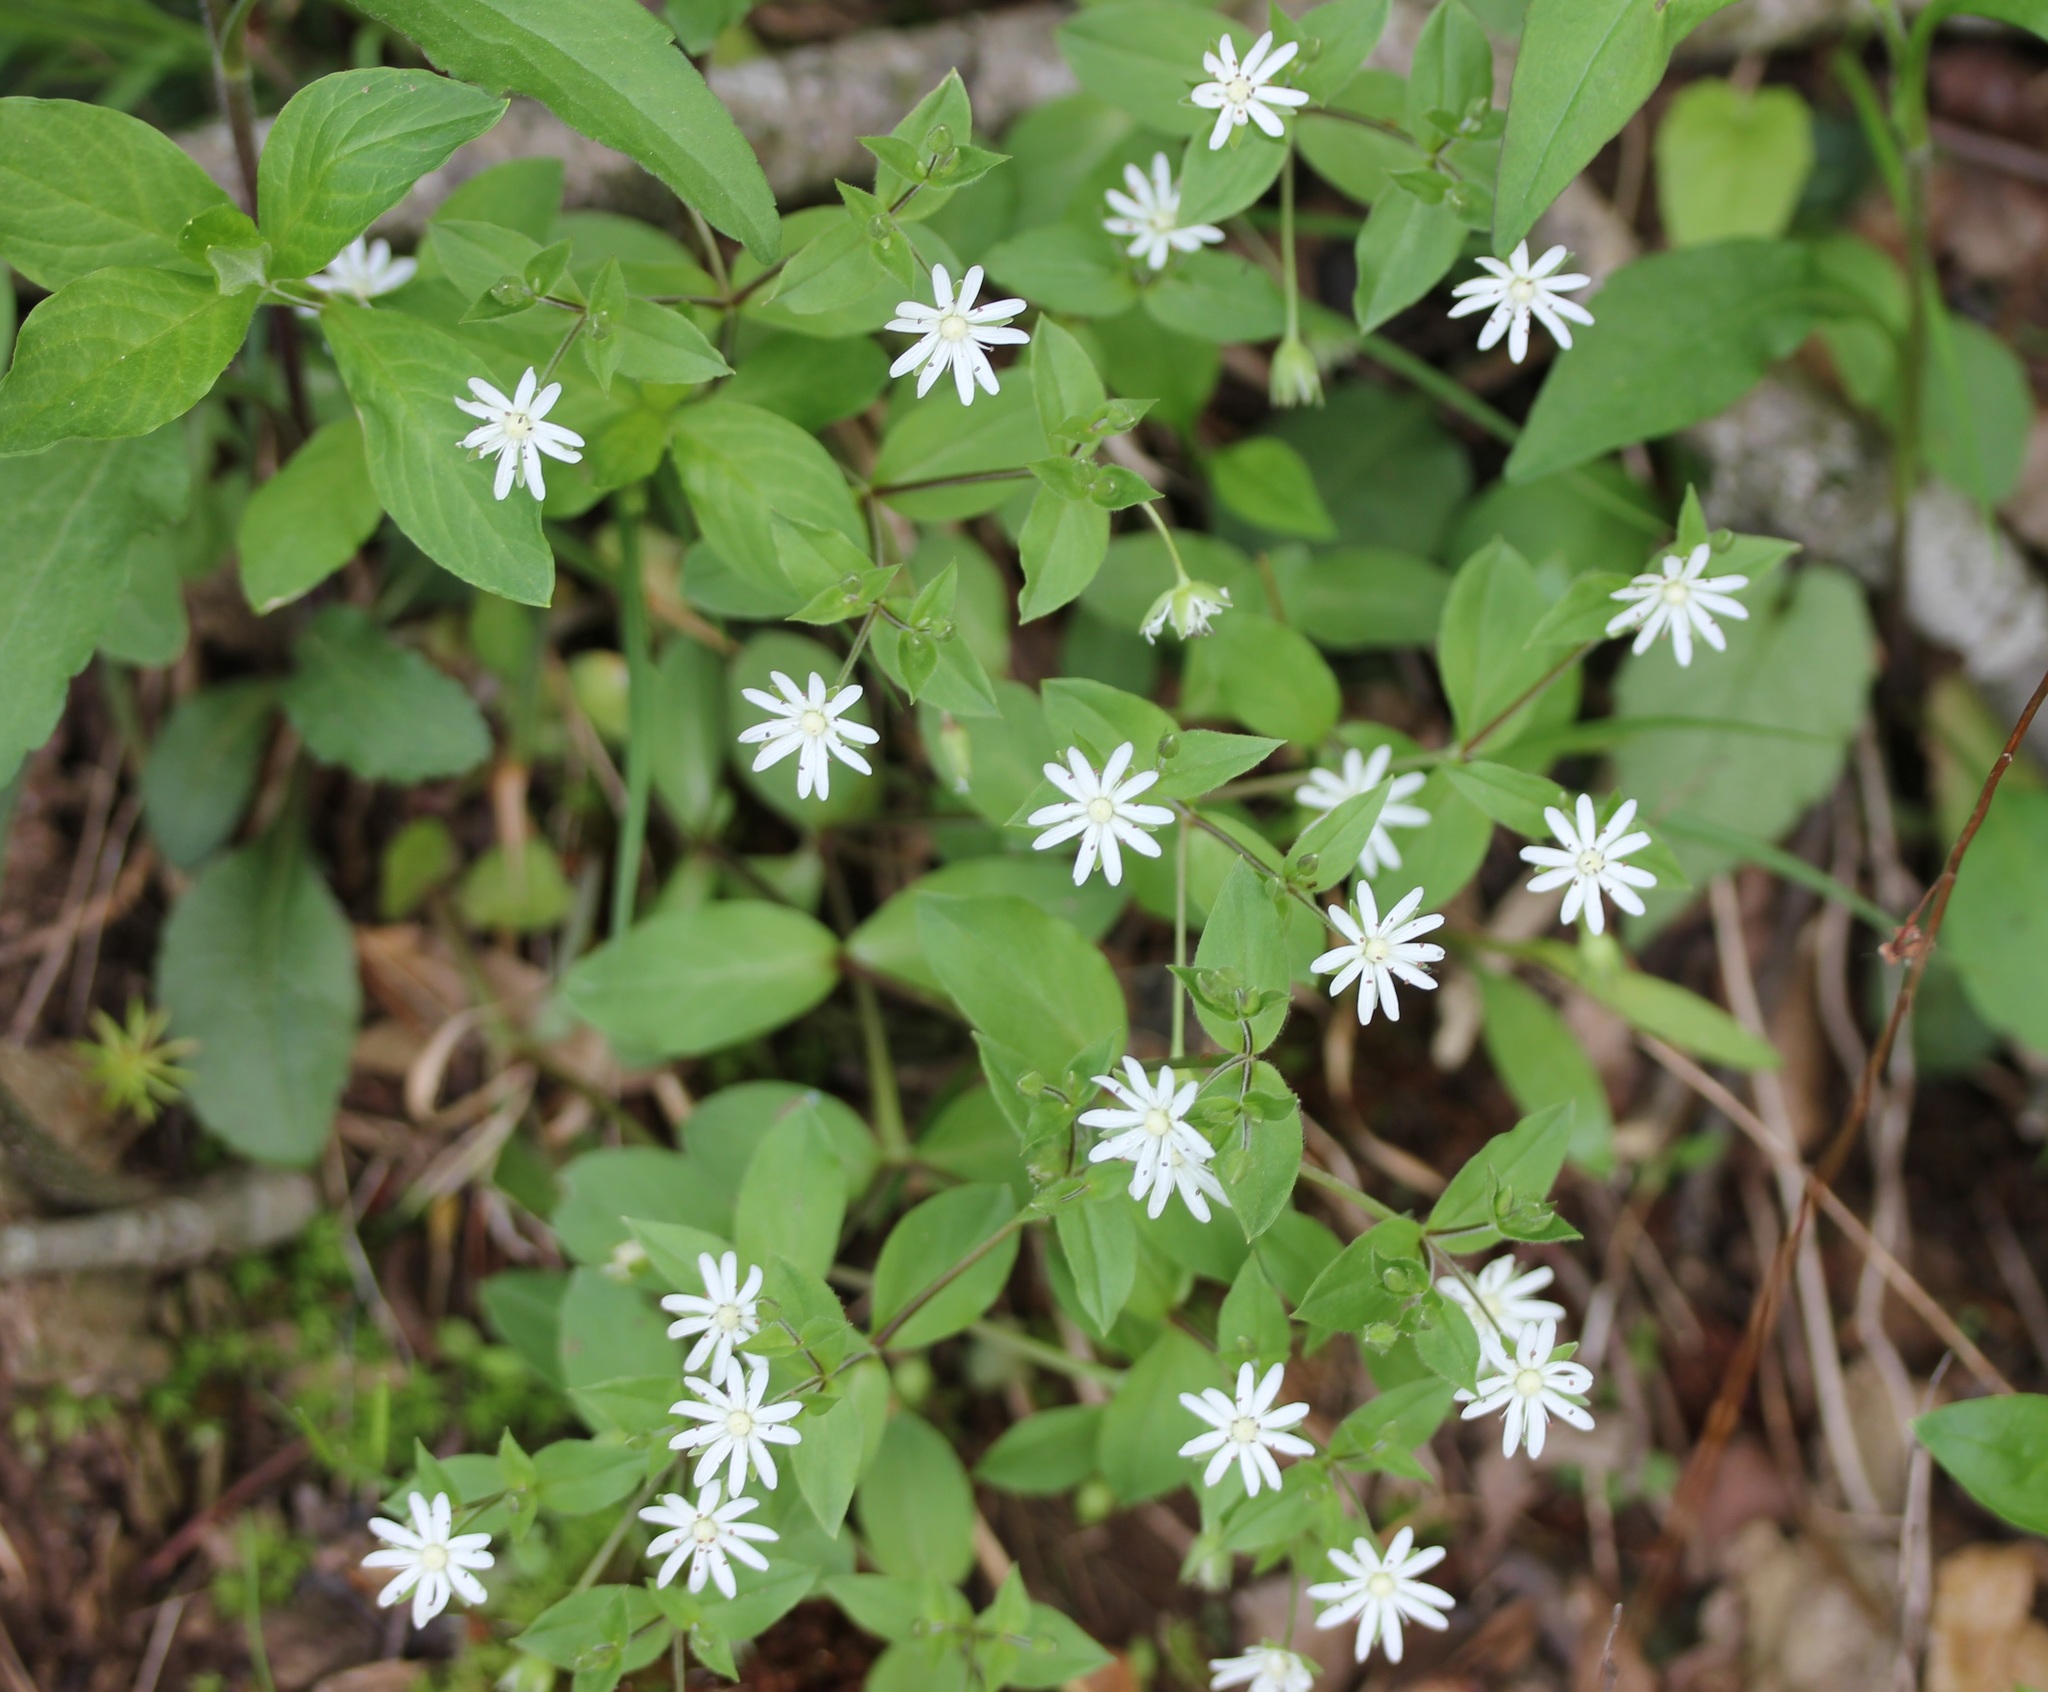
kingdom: Plantae
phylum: Tracheophyta
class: Magnoliopsida
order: Caryophyllales
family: Caryophyllaceae
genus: Stellaria
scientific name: Stellaria pubera
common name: Star chickweed
